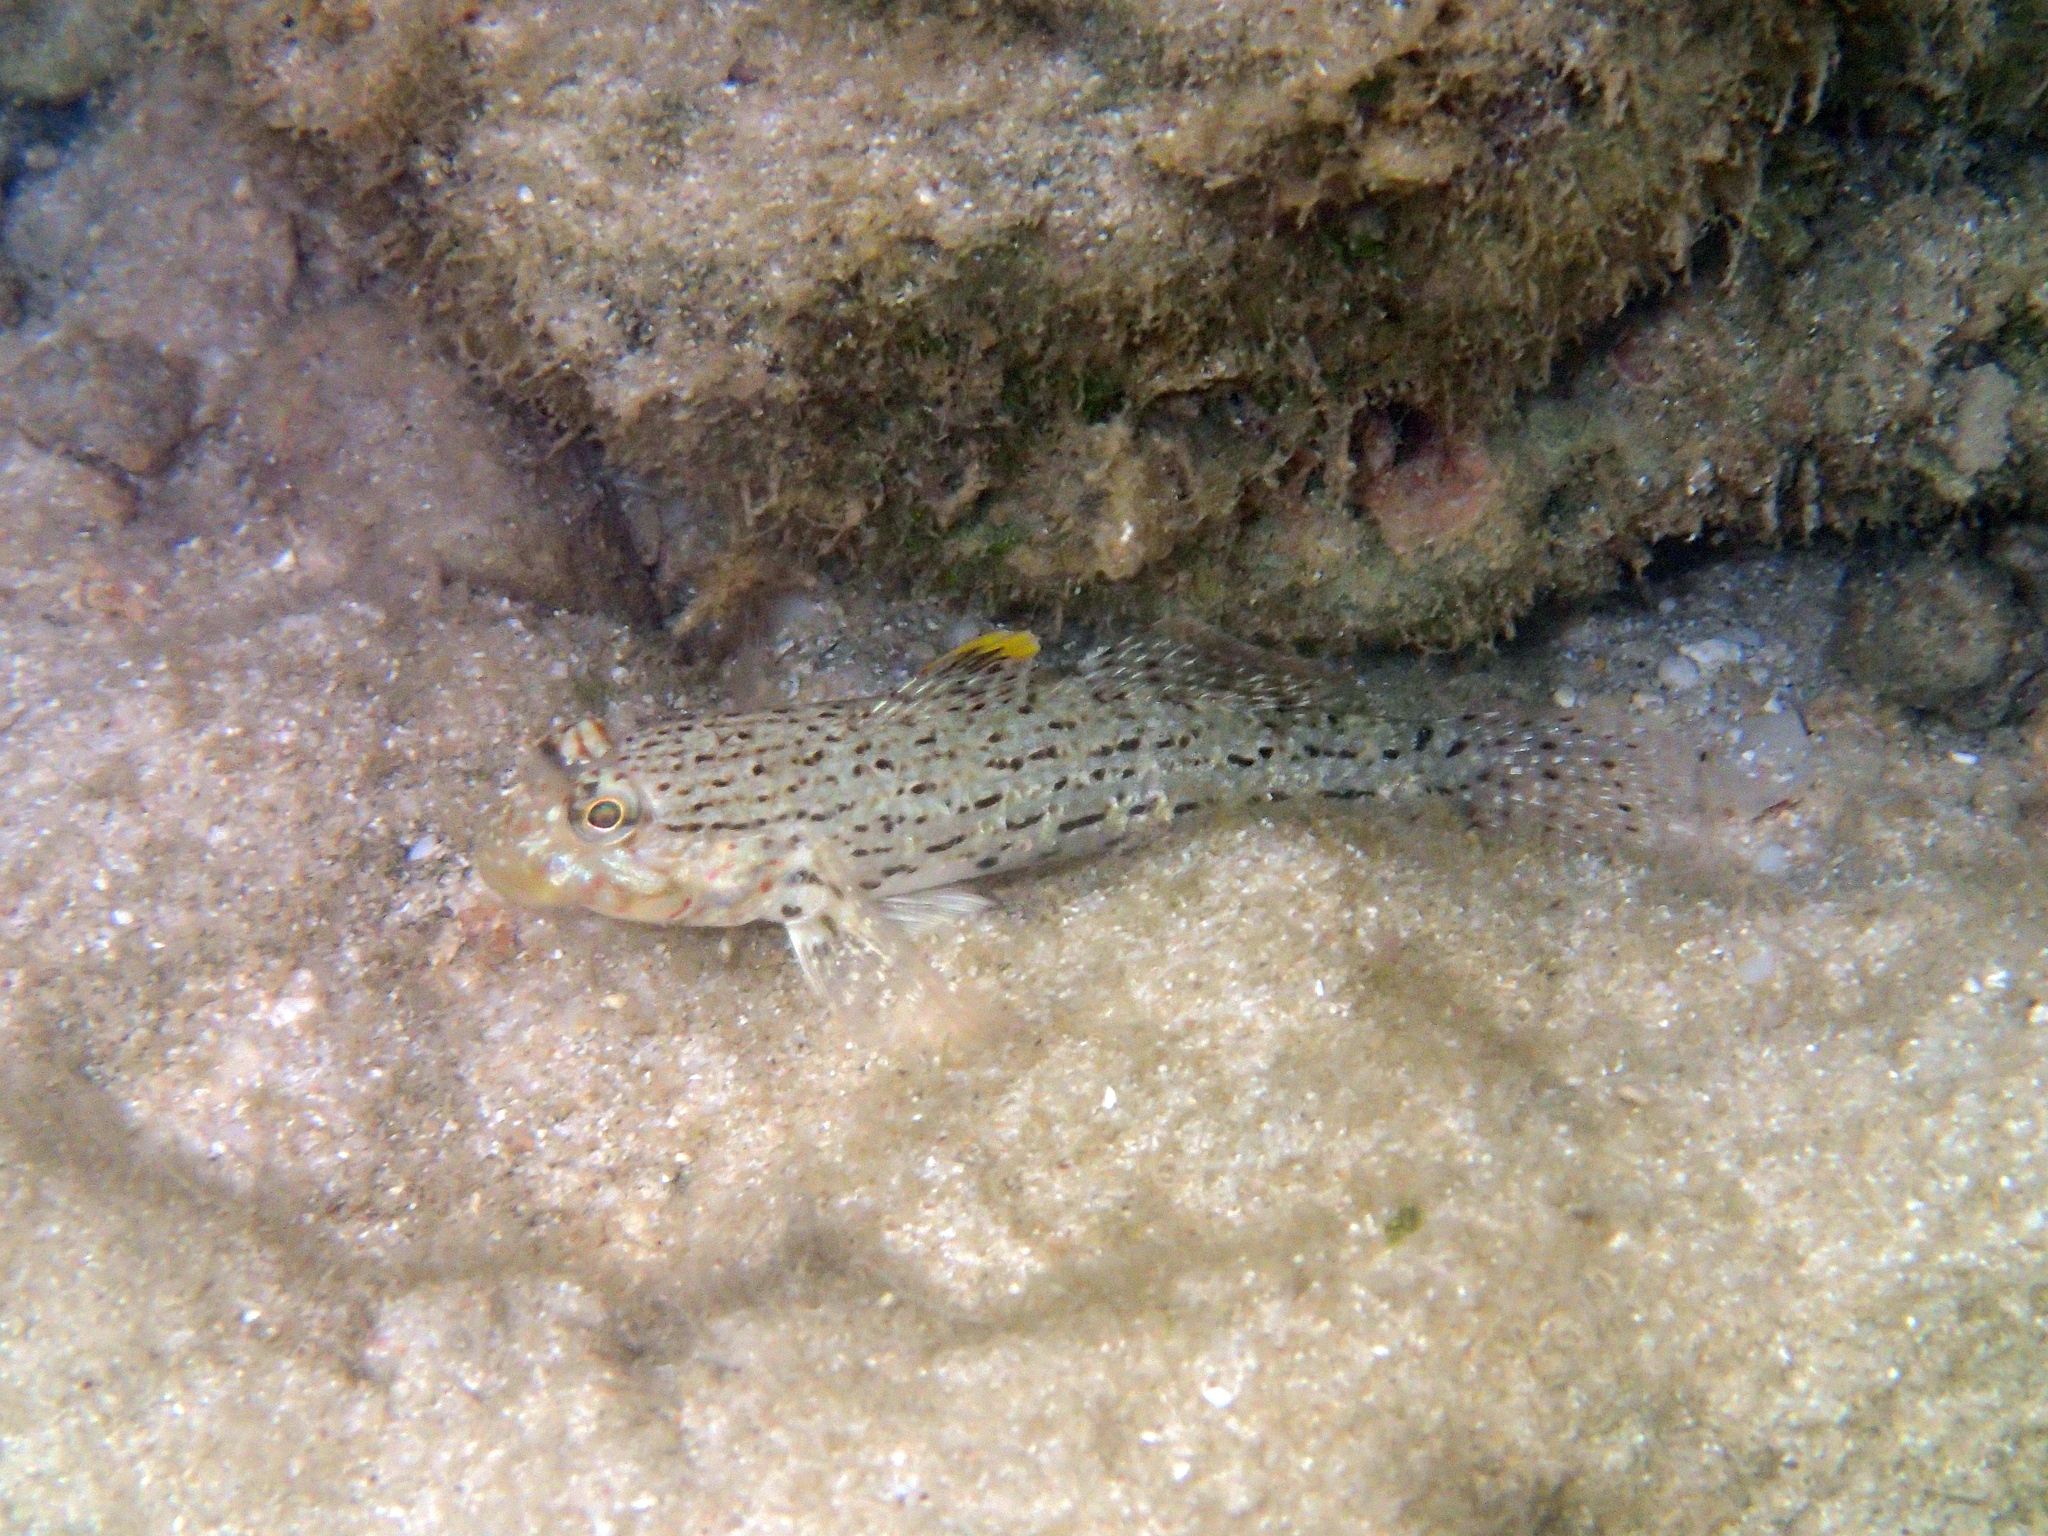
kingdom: Animalia
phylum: Chordata
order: Perciformes
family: Gobiidae
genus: Istigobius
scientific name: Istigobius ornatus
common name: Ornate goby
